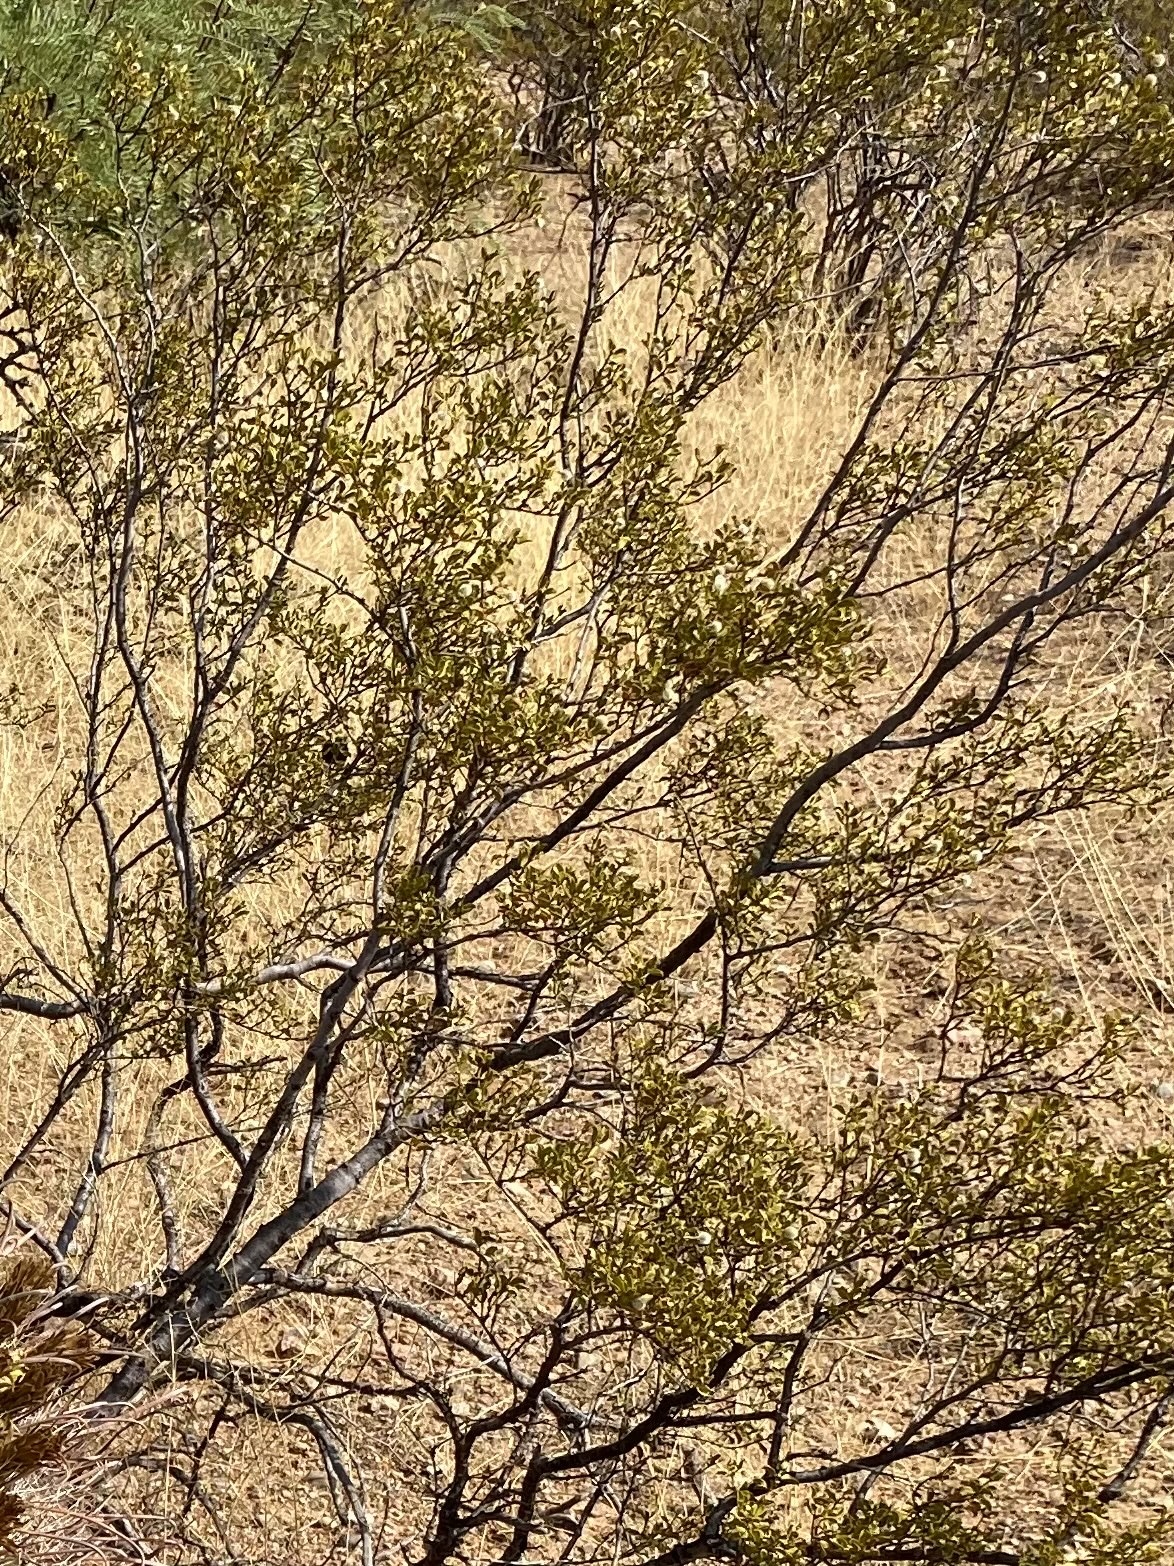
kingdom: Plantae
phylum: Tracheophyta
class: Magnoliopsida
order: Zygophyllales
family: Zygophyllaceae
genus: Larrea
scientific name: Larrea tridentata
